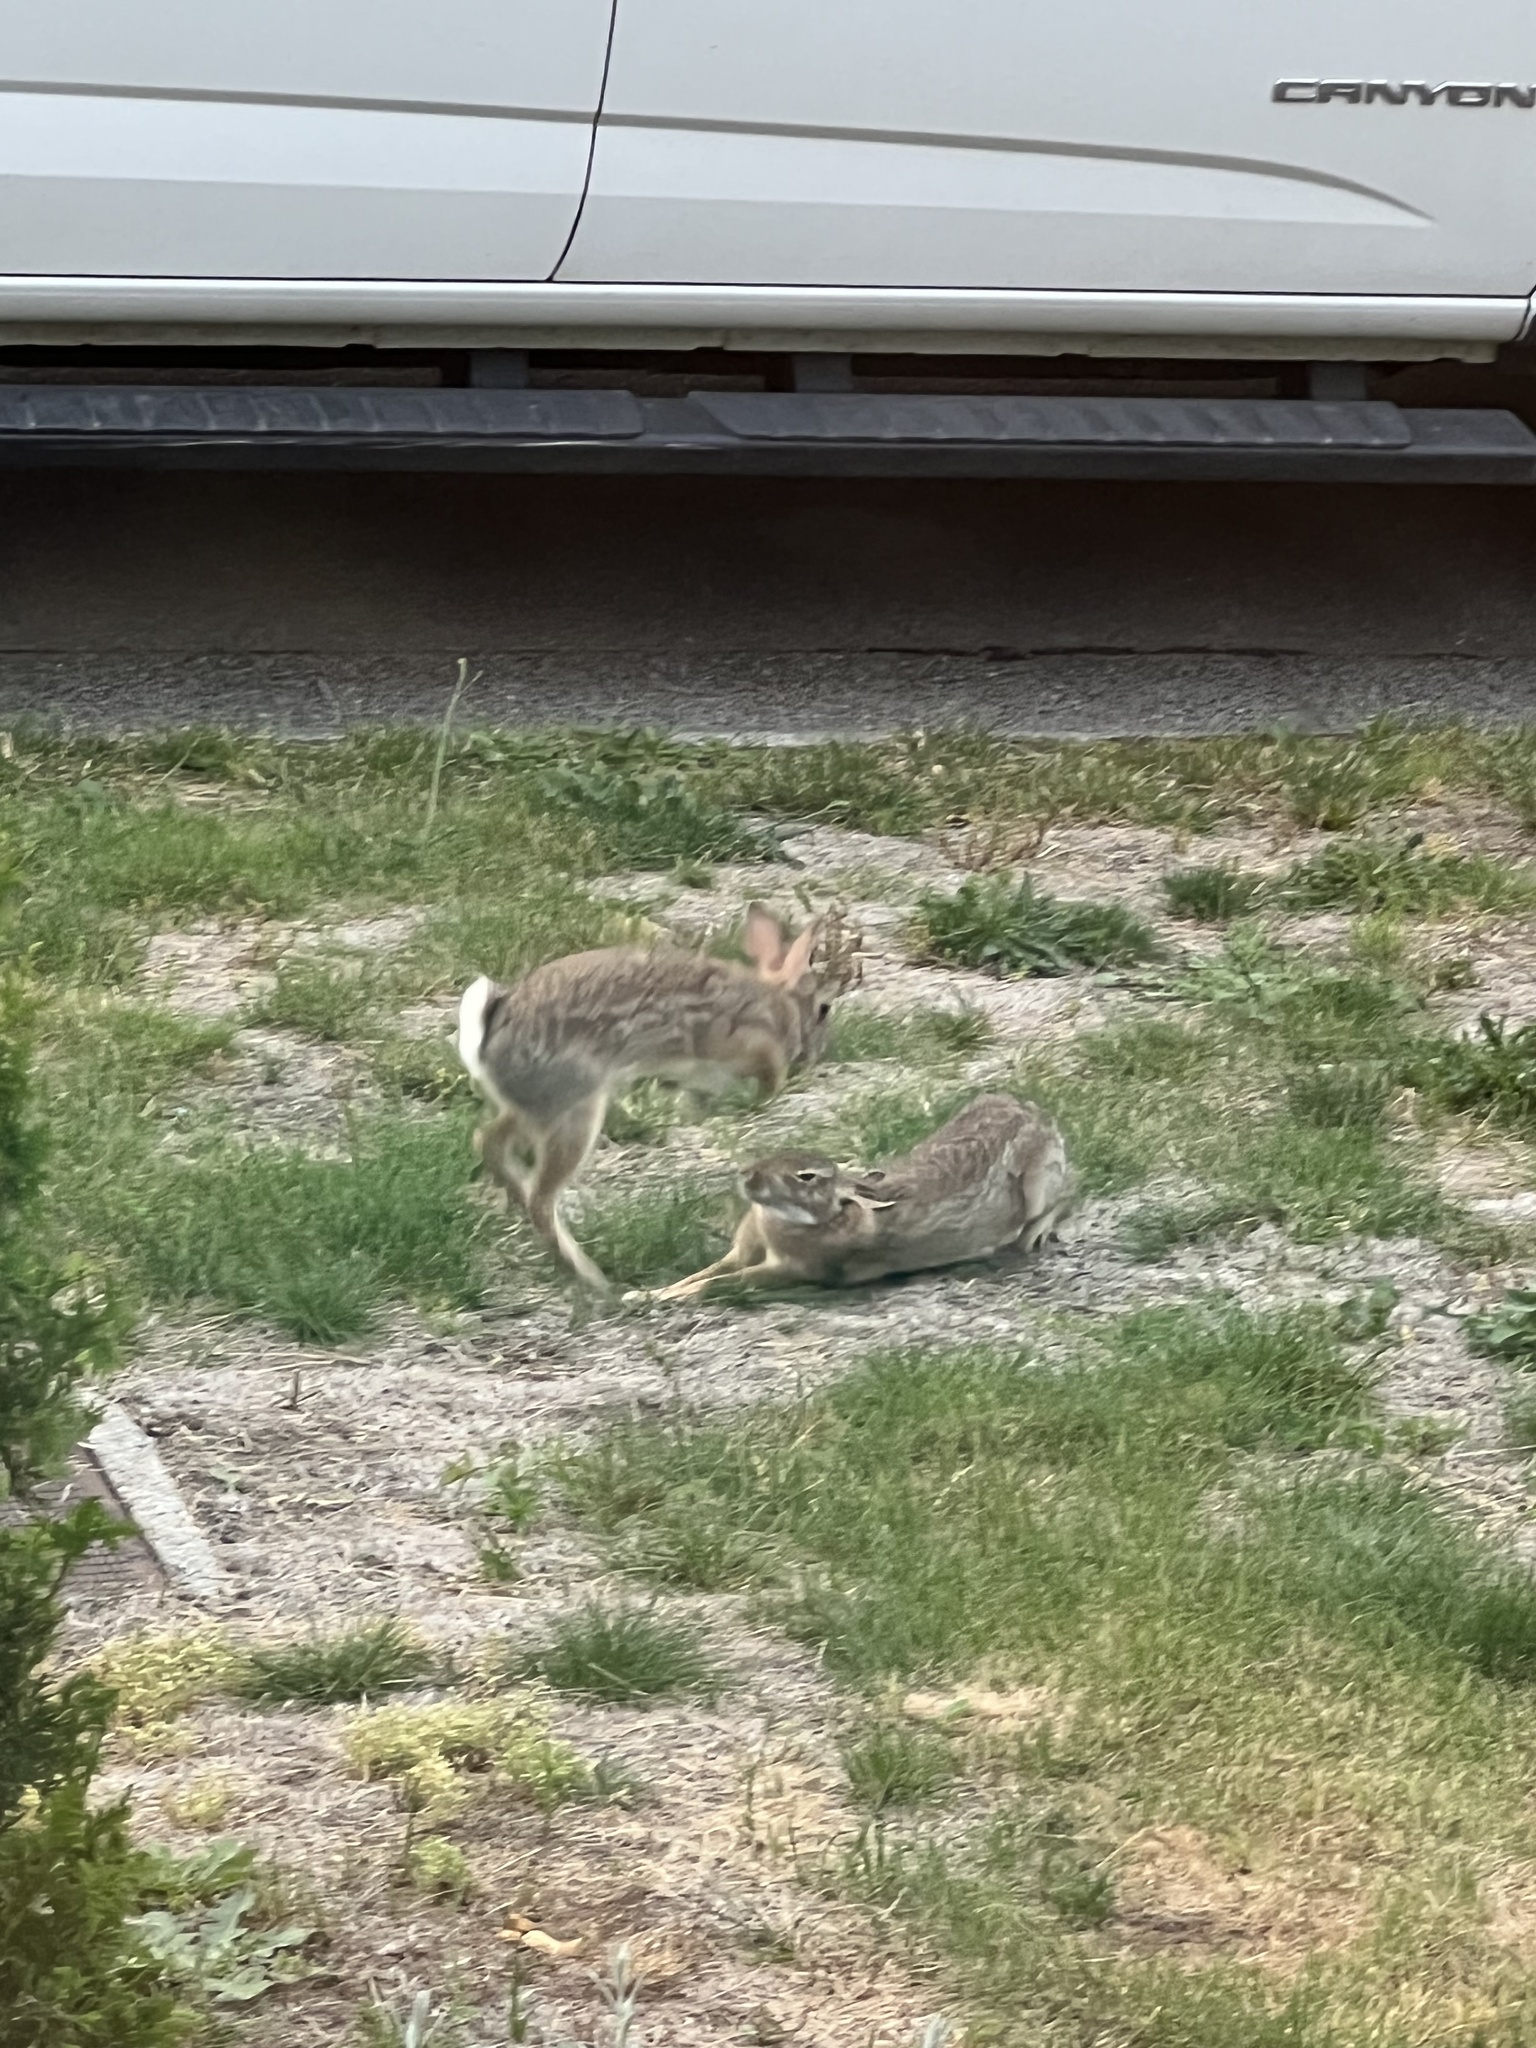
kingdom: Animalia
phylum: Chordata
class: Mammalia
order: Lagomorpha
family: Leporidae
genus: Sylvilagus
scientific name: Sylvilagus floridanus
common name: Eastern cottontail
